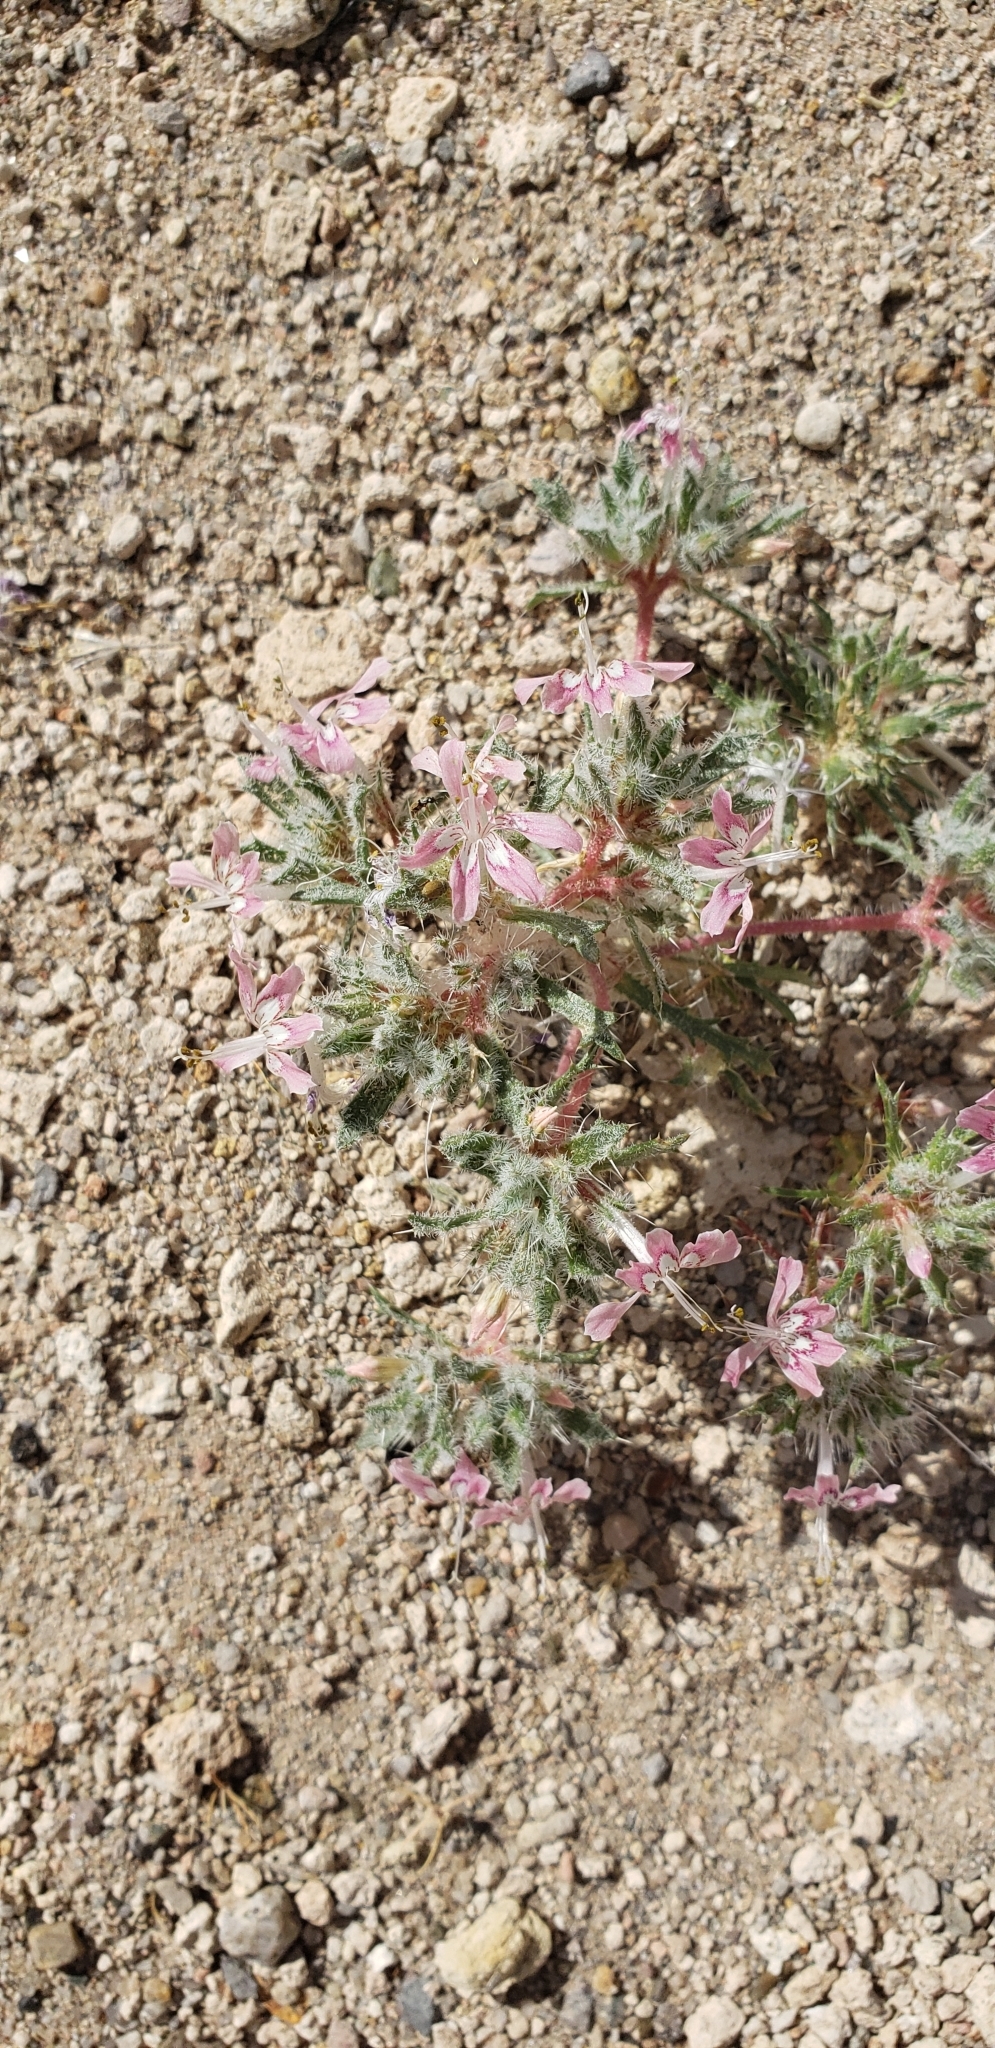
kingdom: Plantae
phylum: Tracheophyta
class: Magnoliopsida
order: Ericales
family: Polemoniaceae
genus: Loeseliastrum
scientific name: Loeseliastrum matthewsii
